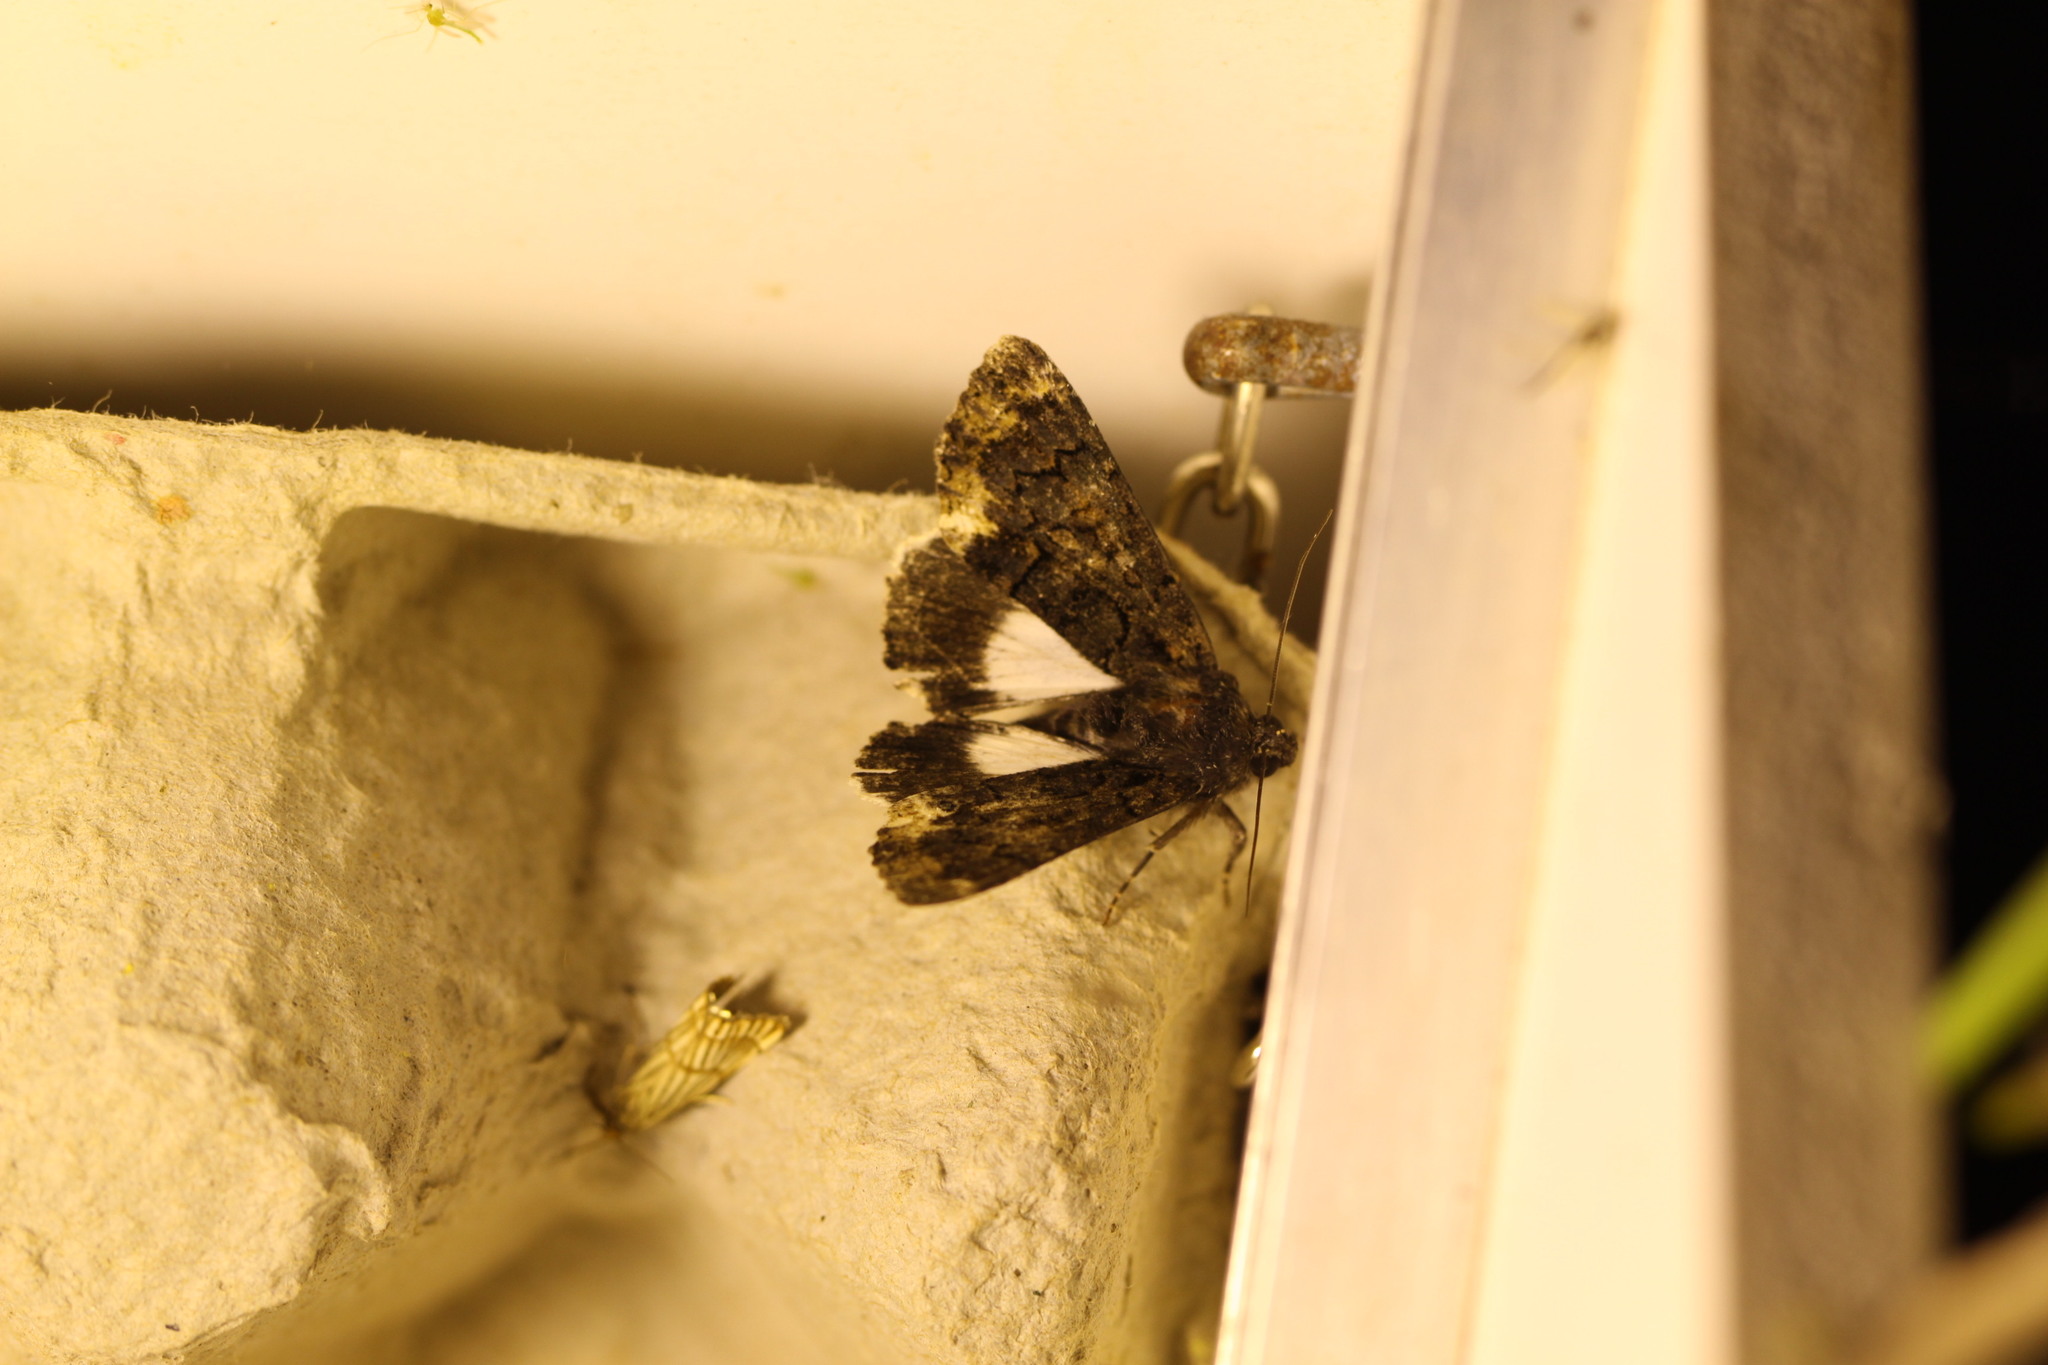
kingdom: Animalia
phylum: Arthropoda
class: Insecta
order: Lepidoptera
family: Erebidae
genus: Catephia
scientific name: Catephia alchymista
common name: Alchymist
